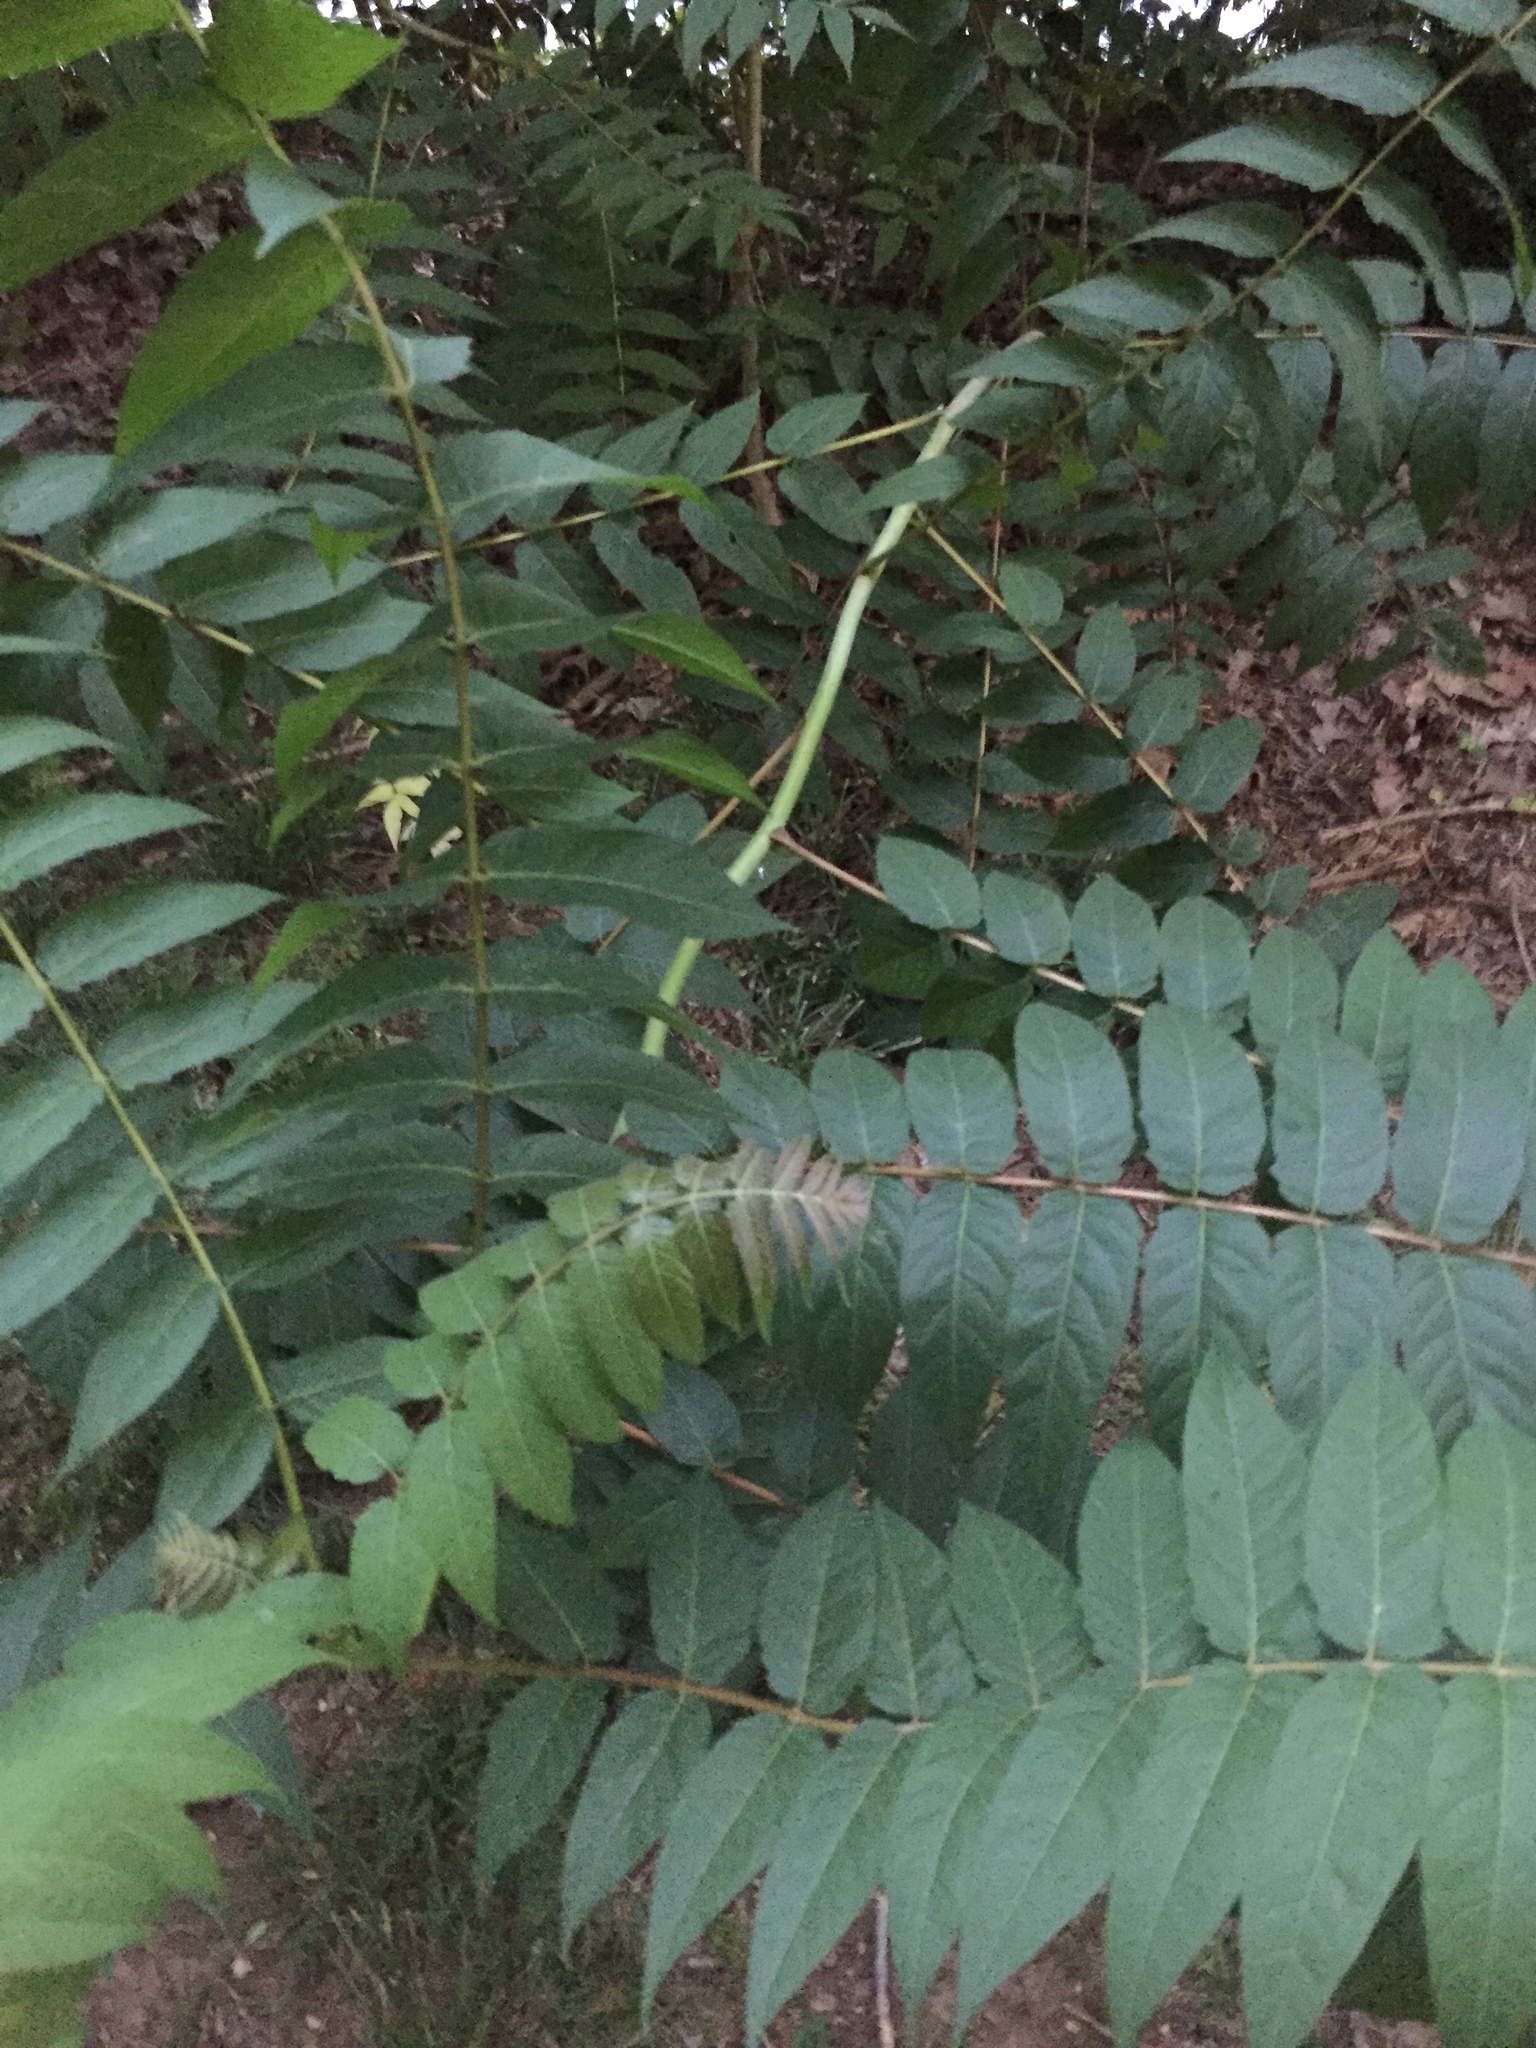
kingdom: Plantae
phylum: Tracheophyta
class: Magnoliopsida
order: Sapindales
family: Simaroubaceae
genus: Ailanthus
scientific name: Ailanthus altissima
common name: Tree-of-heaven
